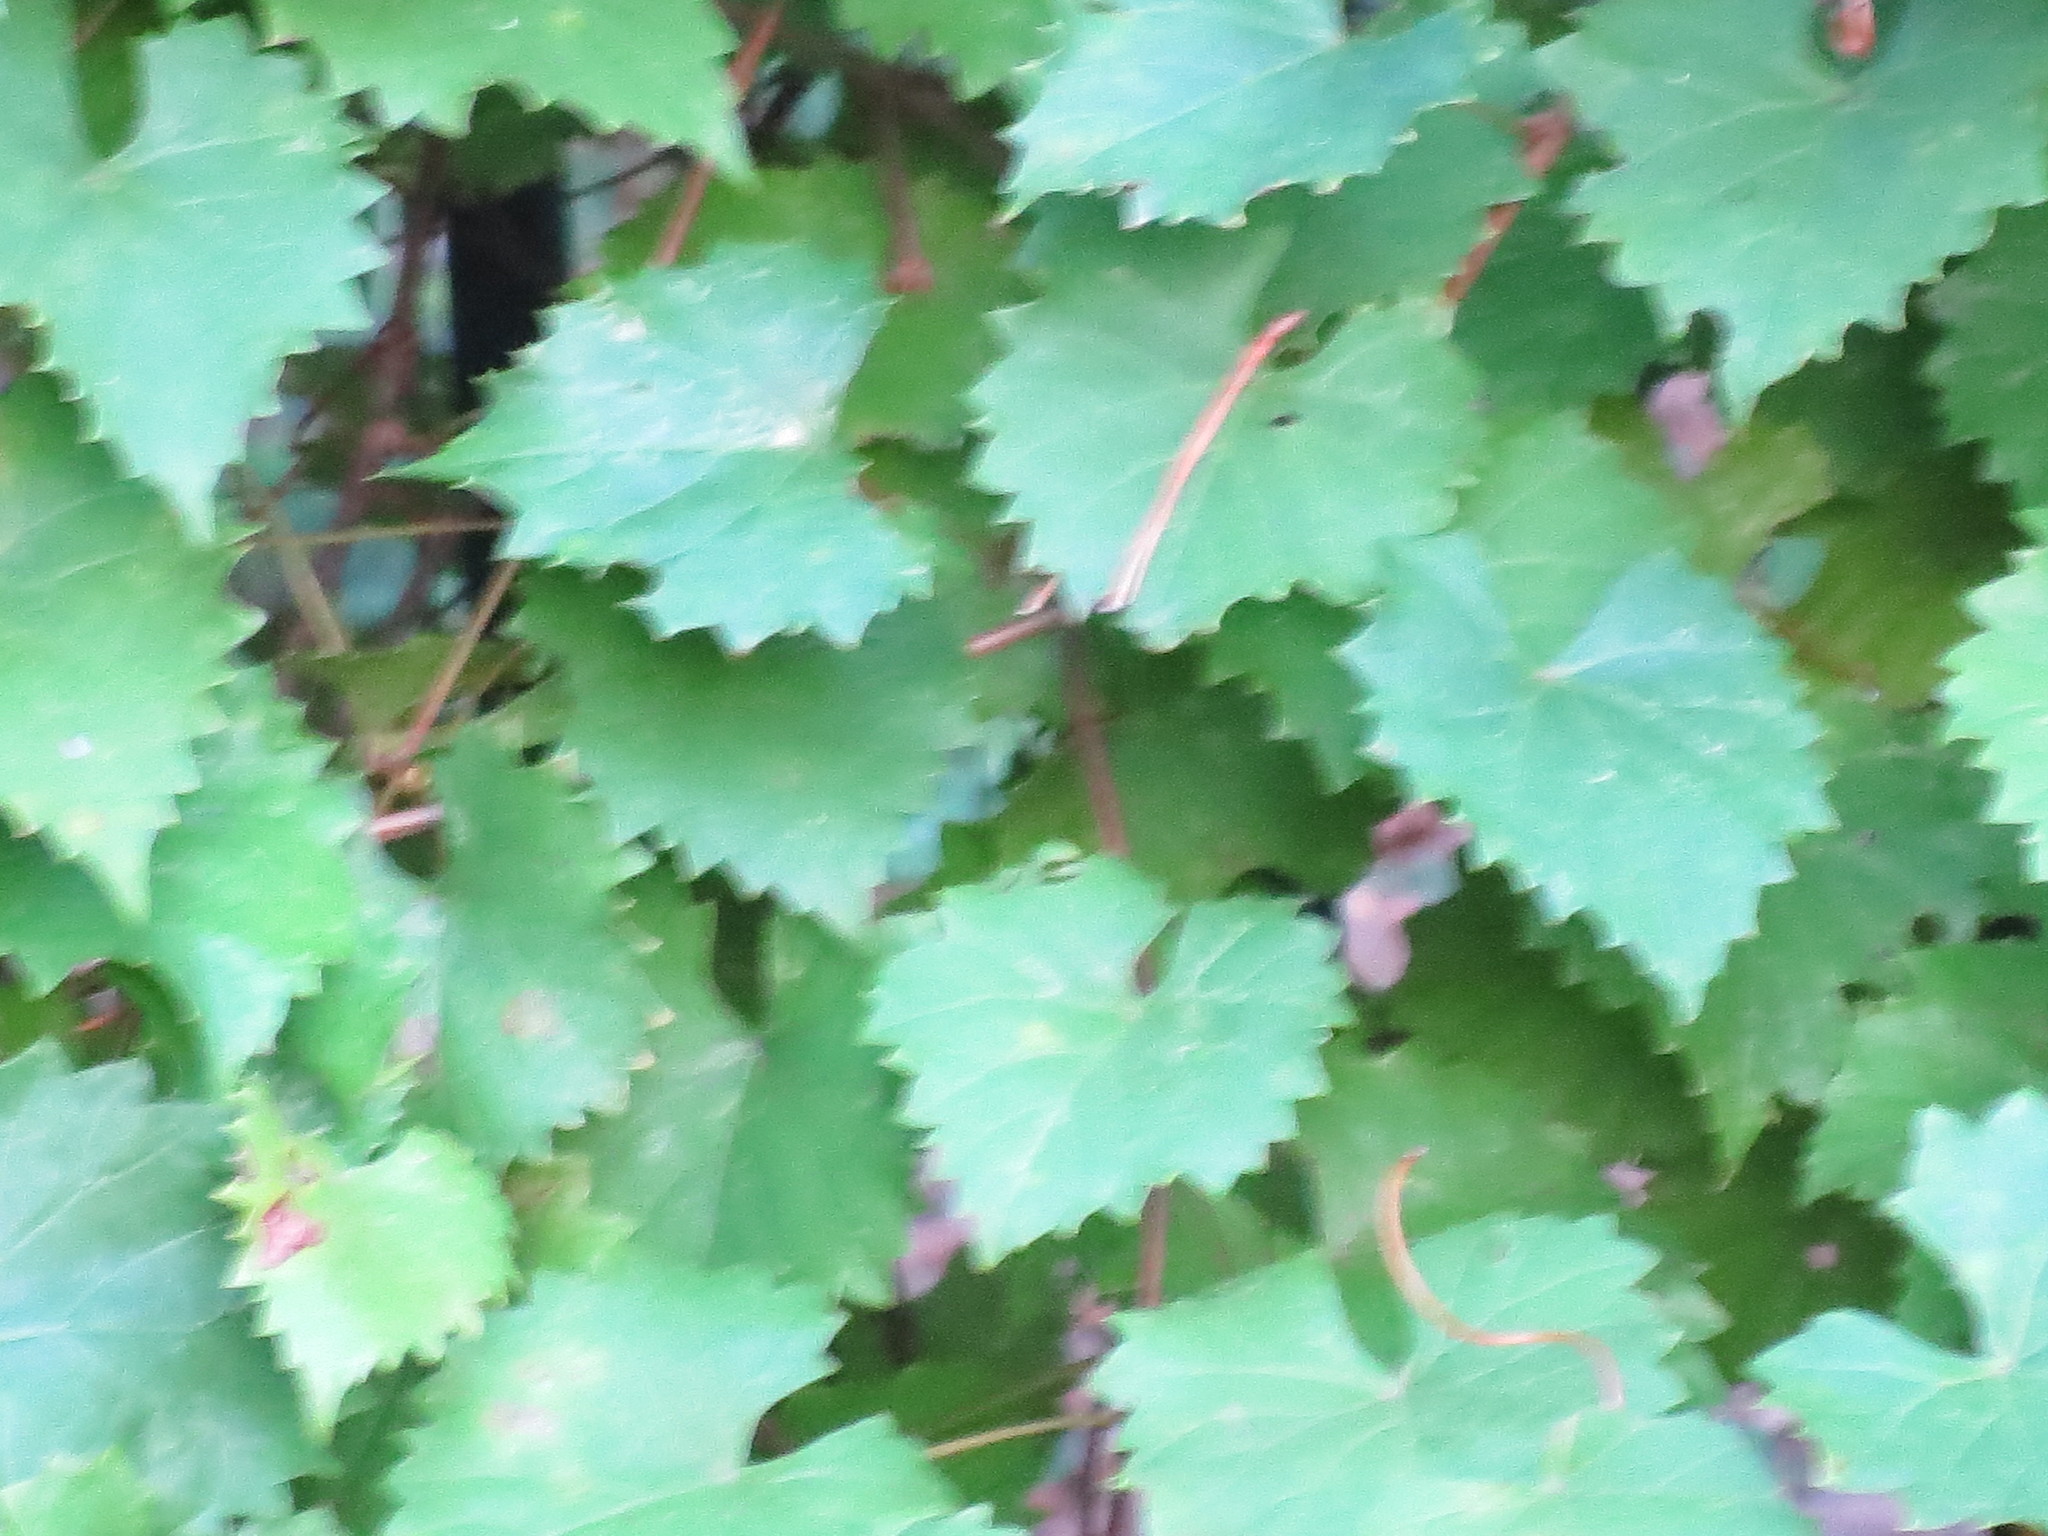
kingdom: Plantae
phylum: Tracheophyta
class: Magnoliopsida
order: Vitales
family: Vitaceae
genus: Vitis
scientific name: Vitis rotundifolia
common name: Muscadine grape
